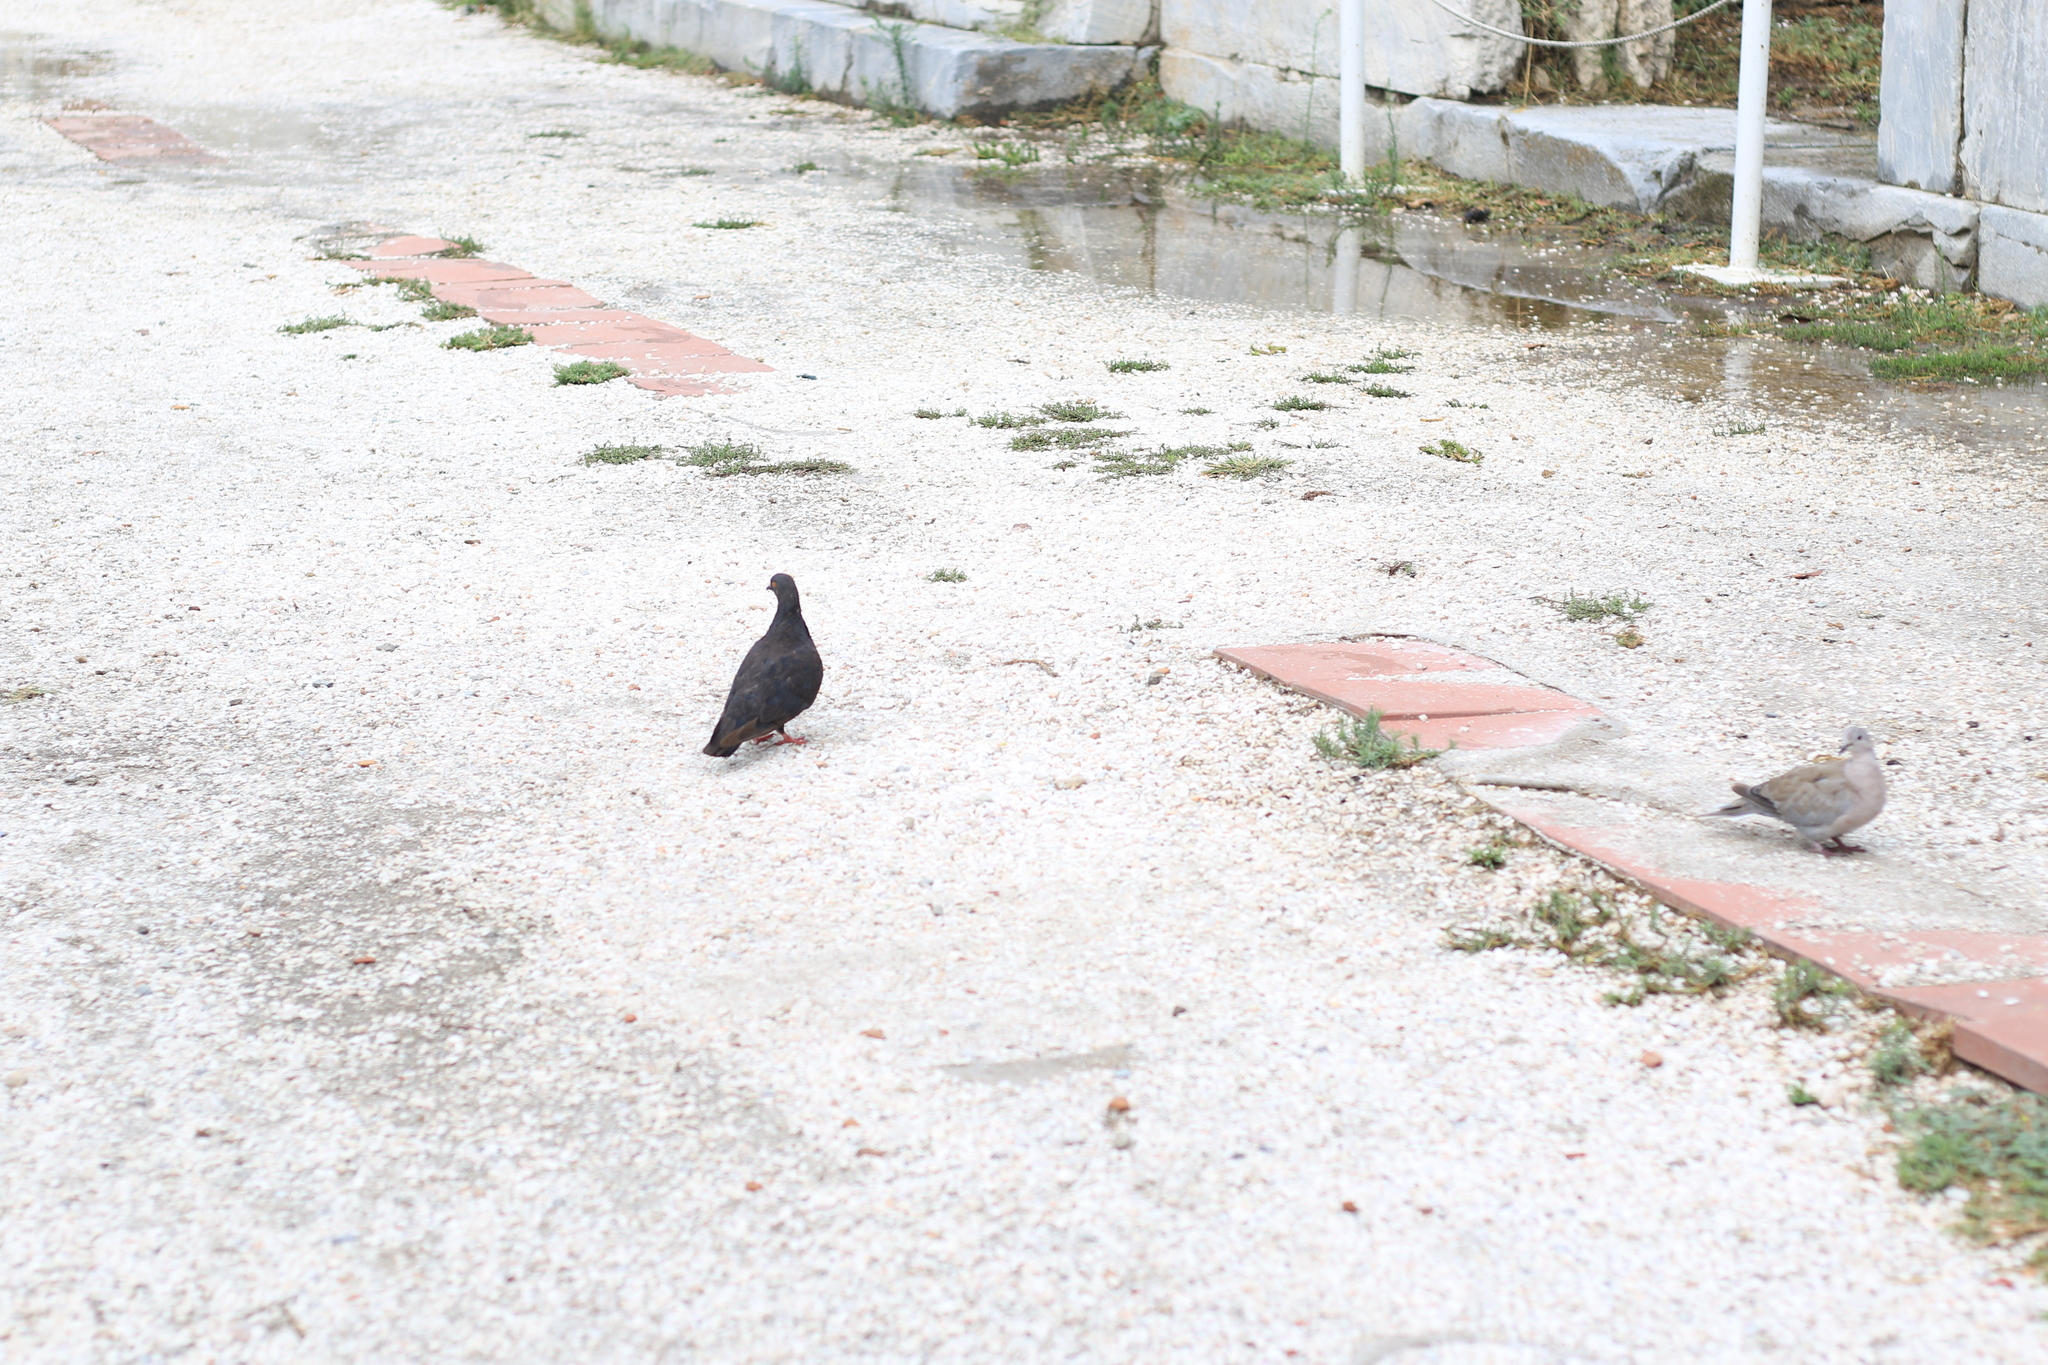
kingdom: Animalia
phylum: Chordata
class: Aves
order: Columbiformes
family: Columbidae
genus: Columba
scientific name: Columba livia
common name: Rock pigeon
